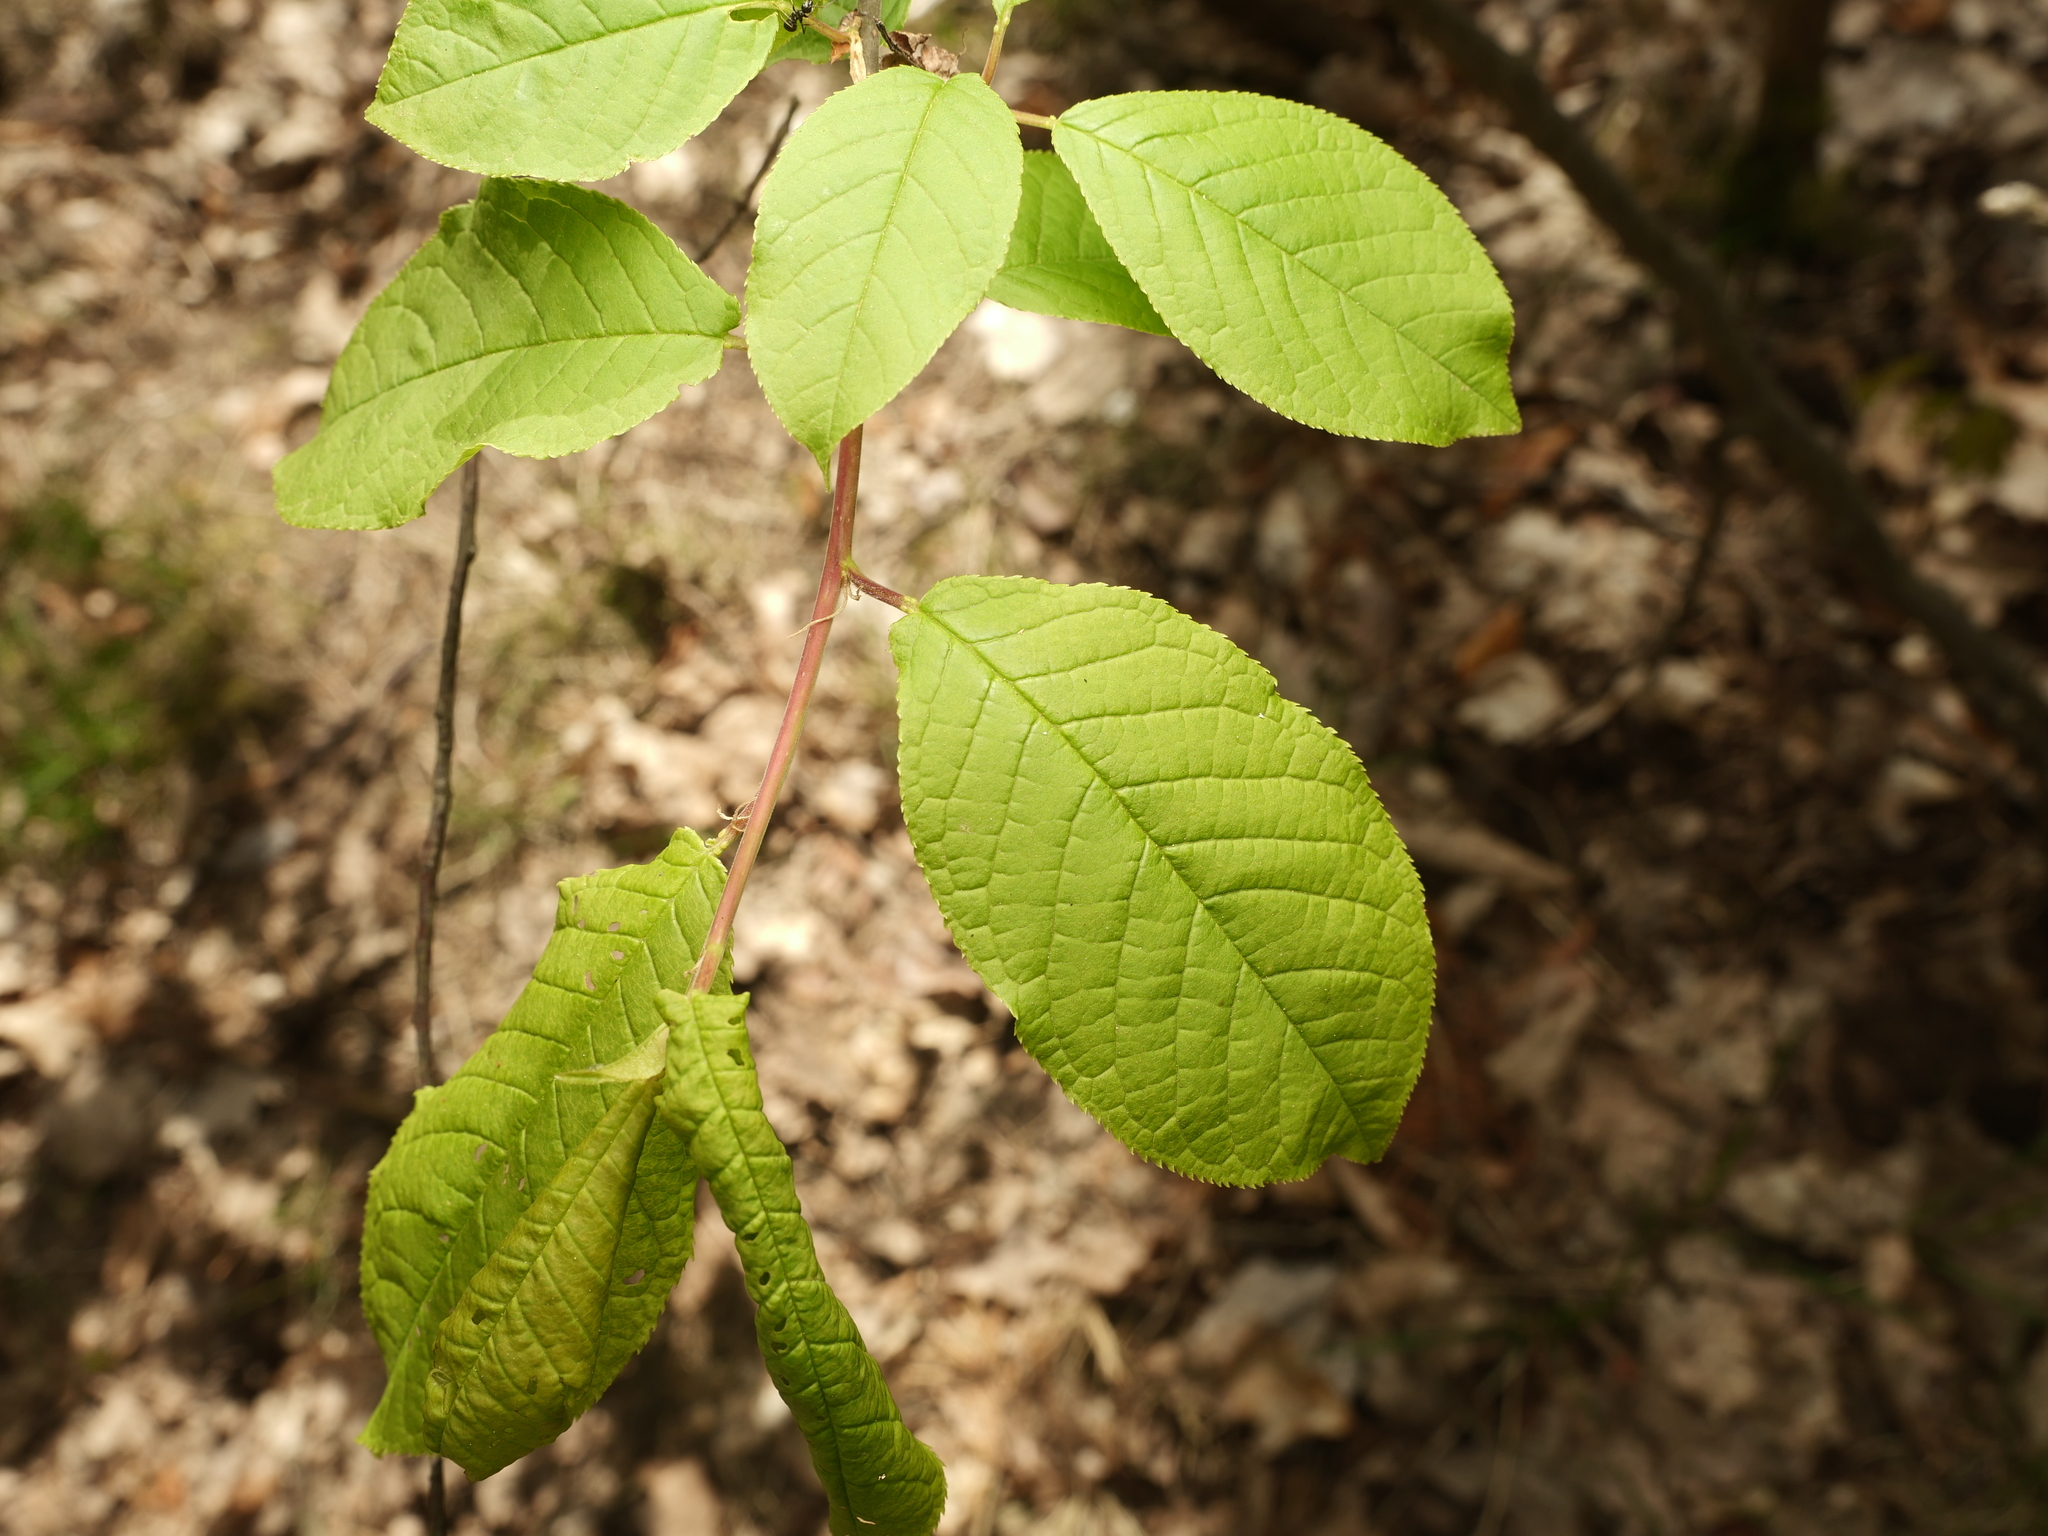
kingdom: Plantae
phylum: Tracheophyta
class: Magnoliopsida
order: Rosales
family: Rosaceae
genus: Prunus
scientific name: Prunus padus
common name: Bird cherry
